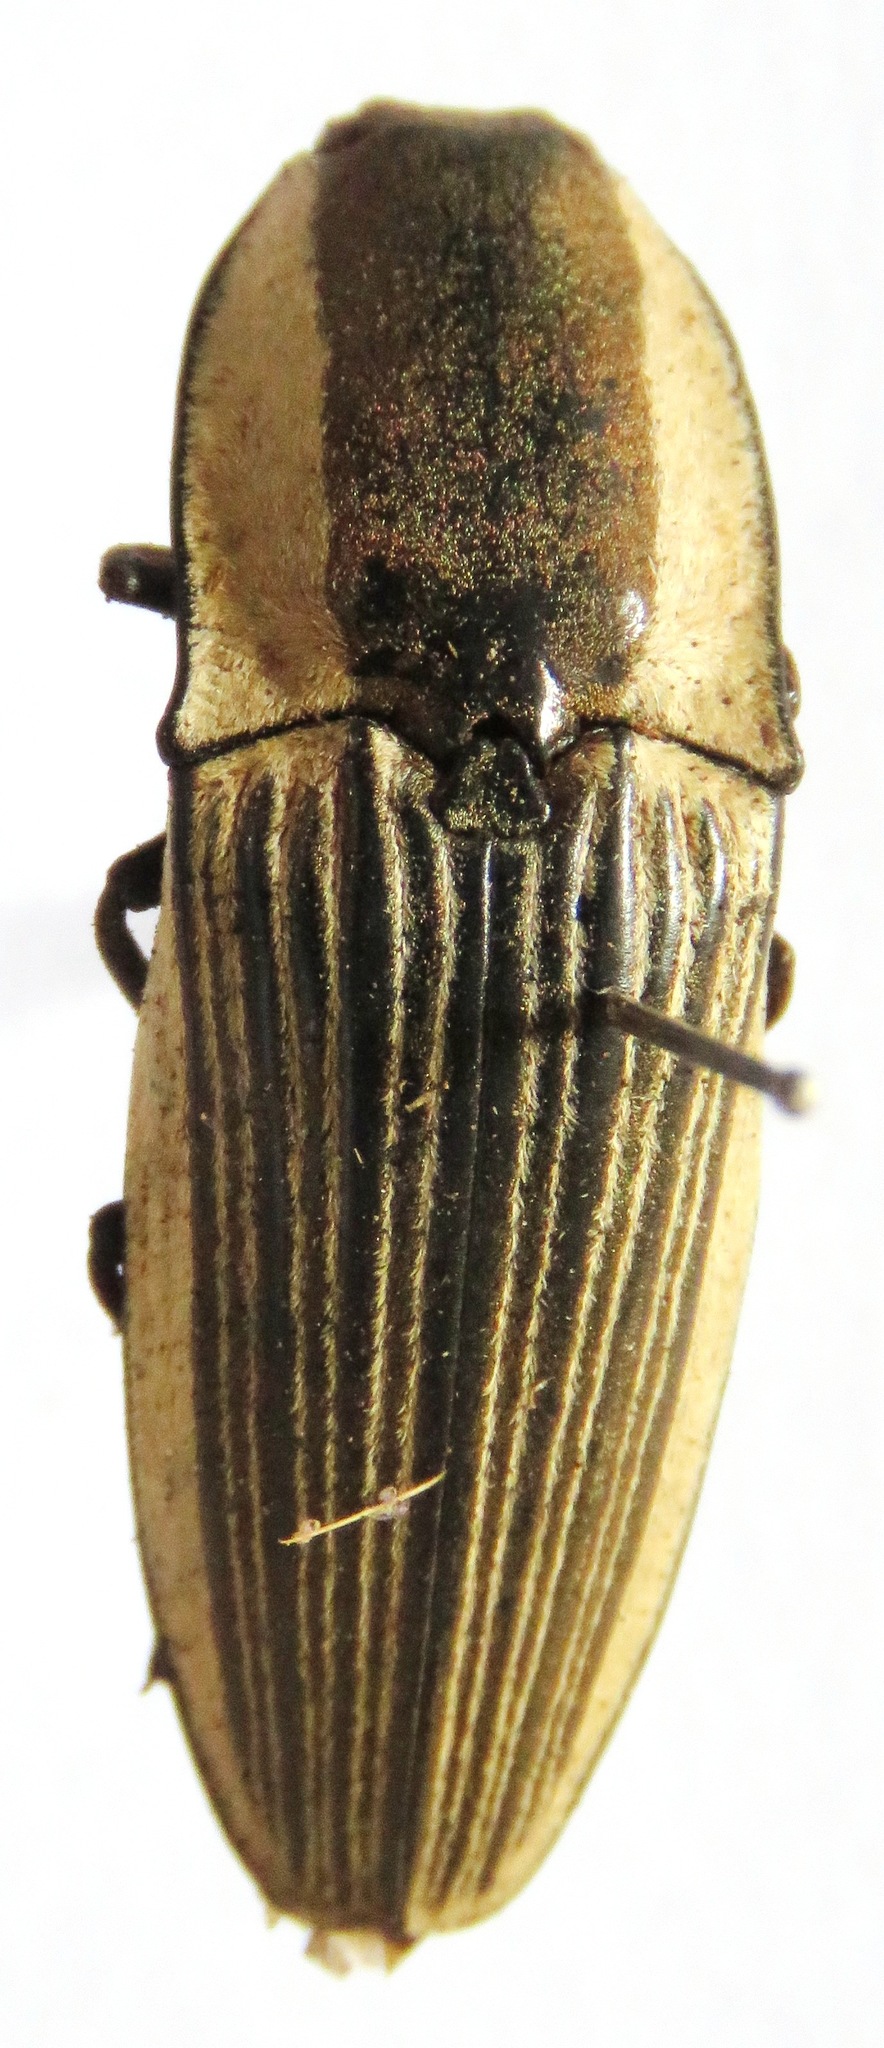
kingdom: Animalia
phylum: Arthropoda
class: Insecta
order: Coleoptera
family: Elateridae
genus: Chalcolepidius
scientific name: Chalcolepidius zonatus
